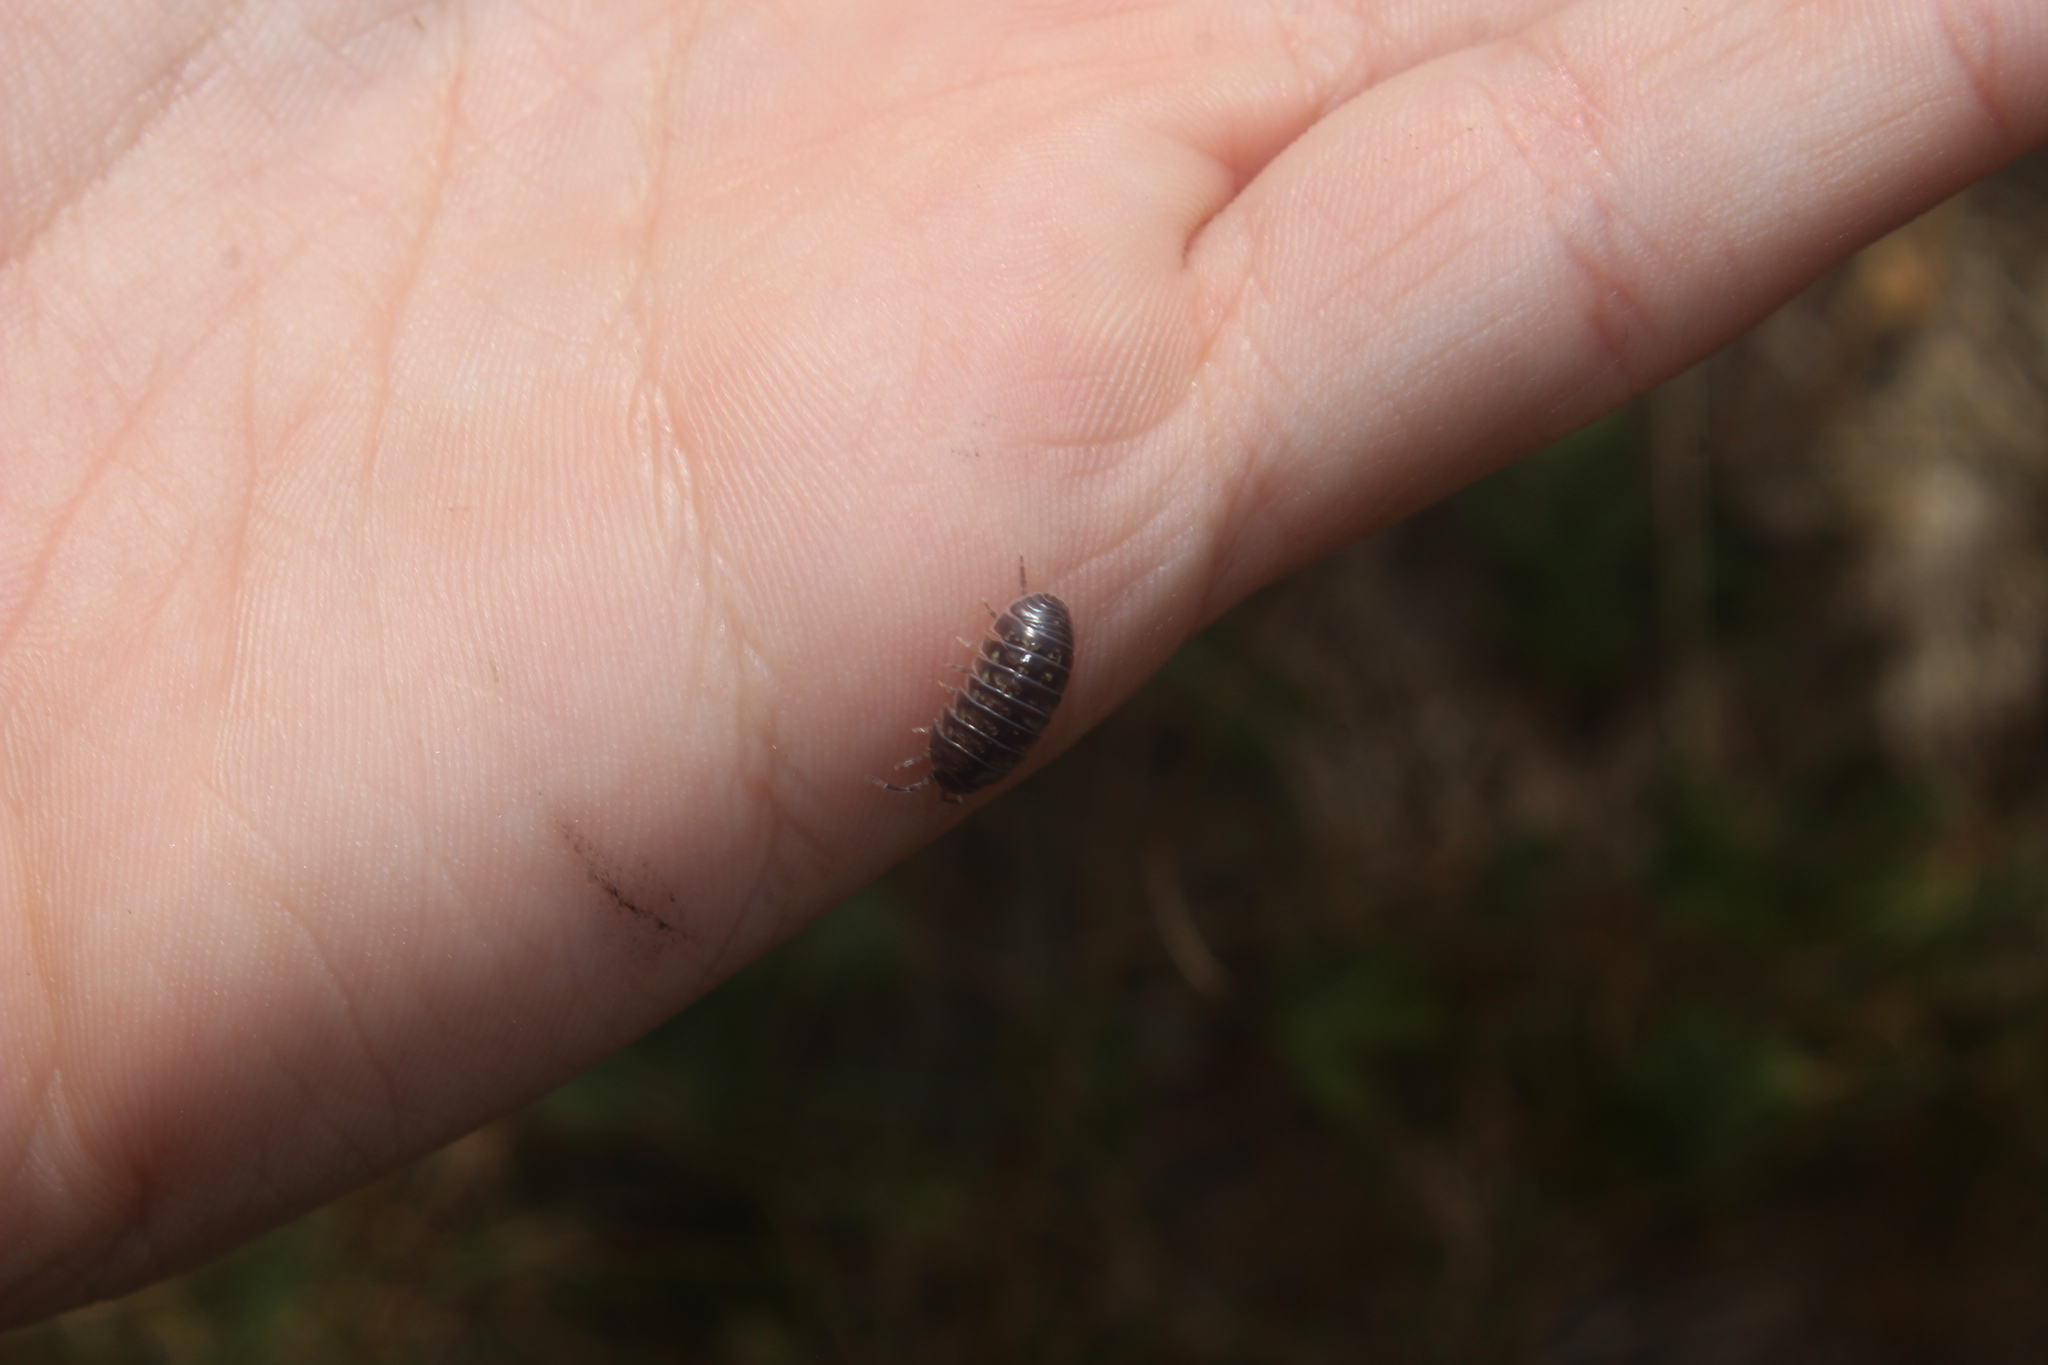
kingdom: Animalia
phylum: Arthropoda
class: Malacostraca
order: Isopoda
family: Armadillidiidae
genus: Armadillidium
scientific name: Armadillidium vulgare
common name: Common pill woodlouse
